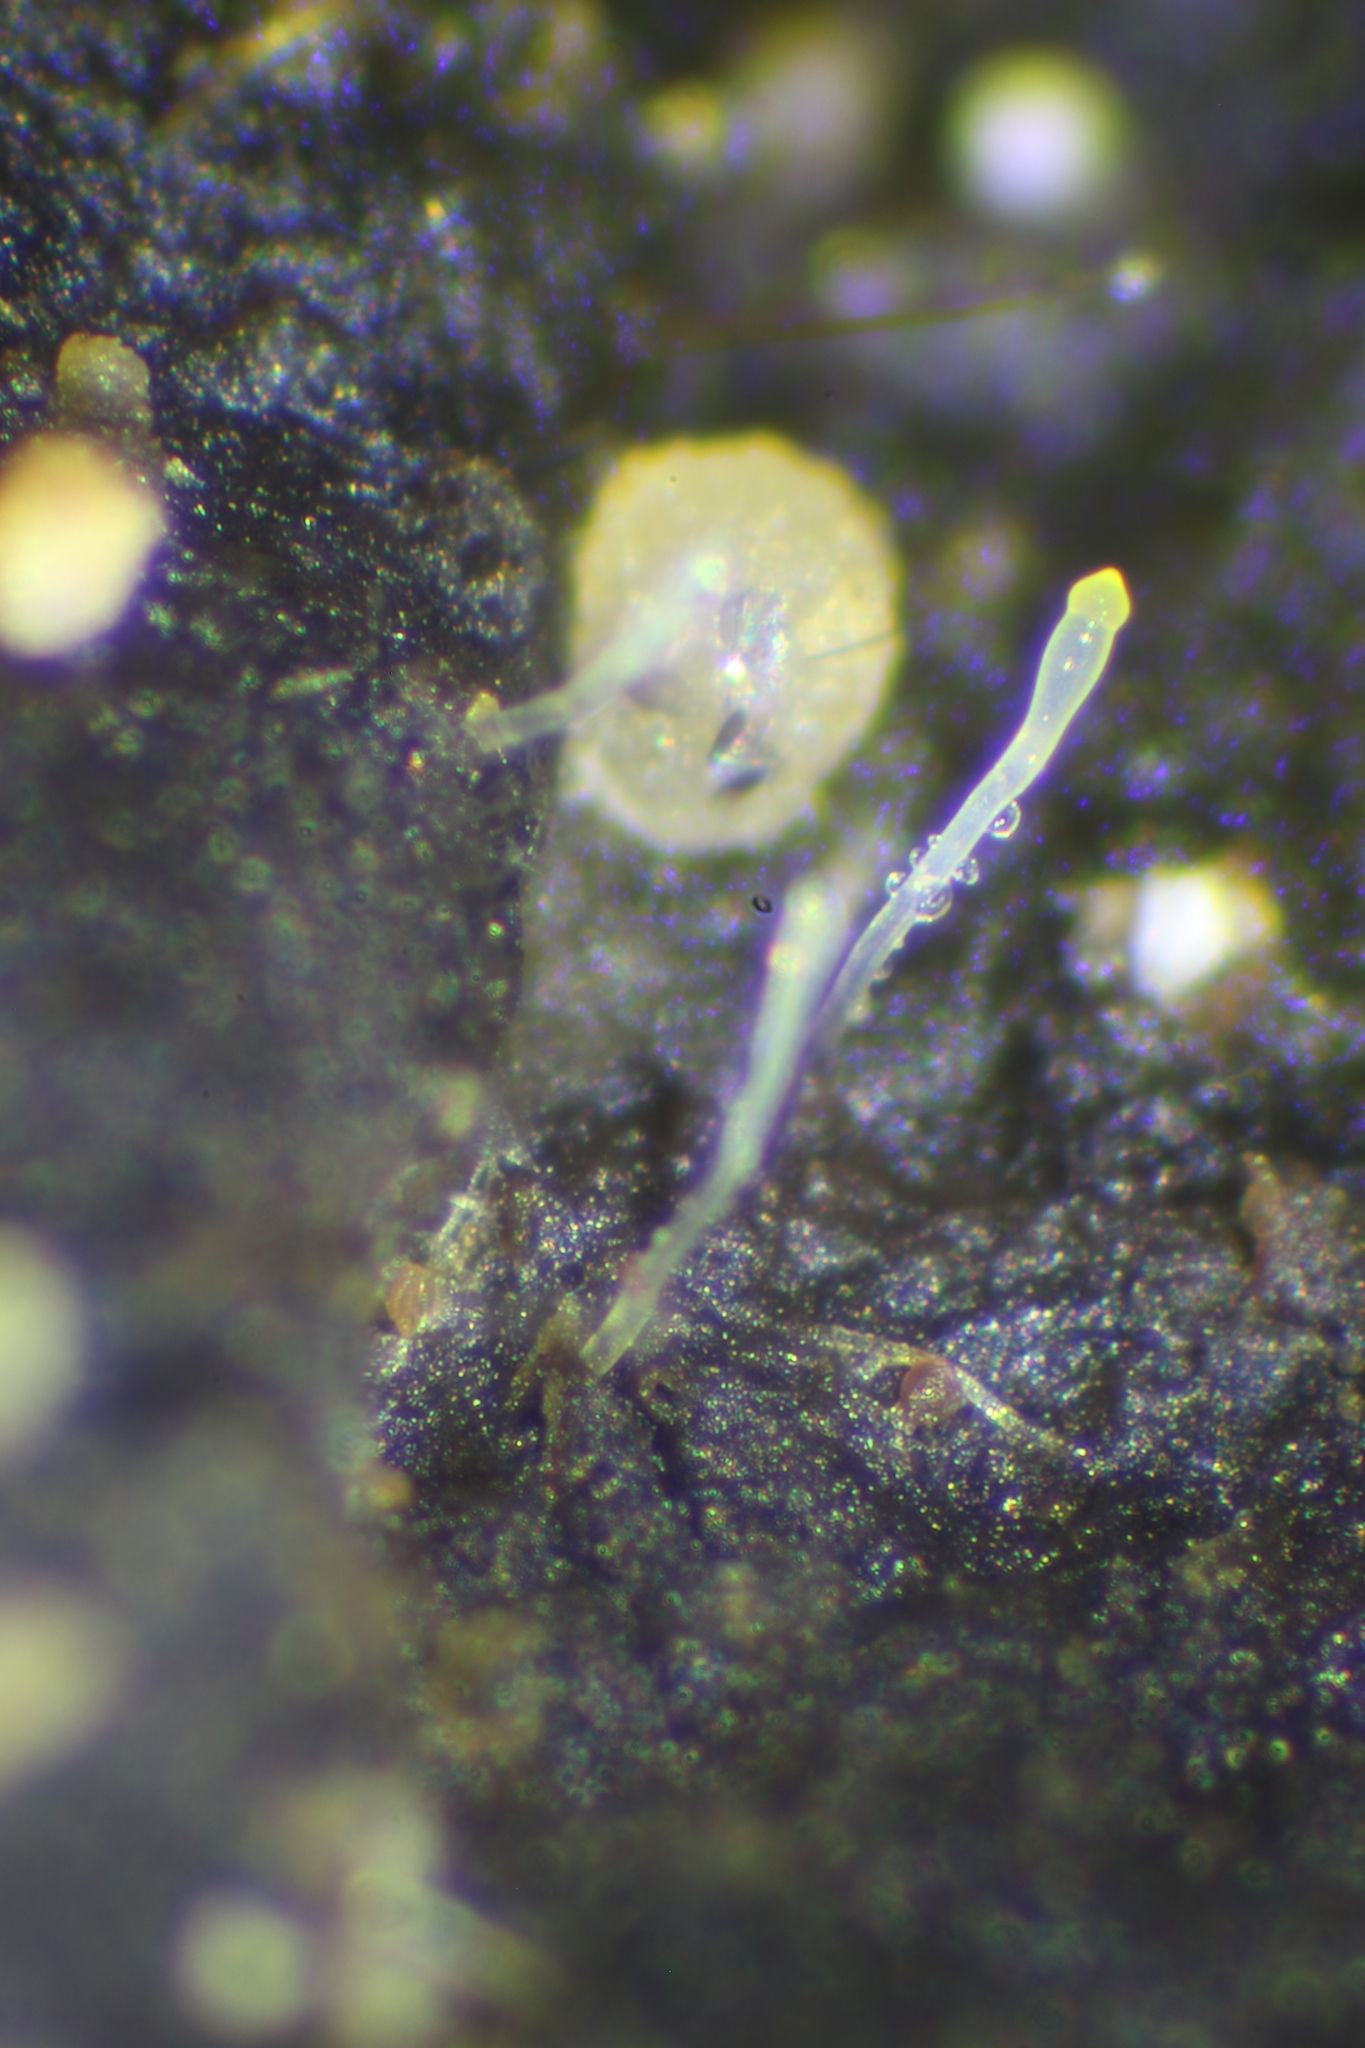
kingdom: Fungi
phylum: Mucoromycota
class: Mucoromycetes
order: Mucorales
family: Pilobolaceae
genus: Pilobolus
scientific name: Pilobolus
